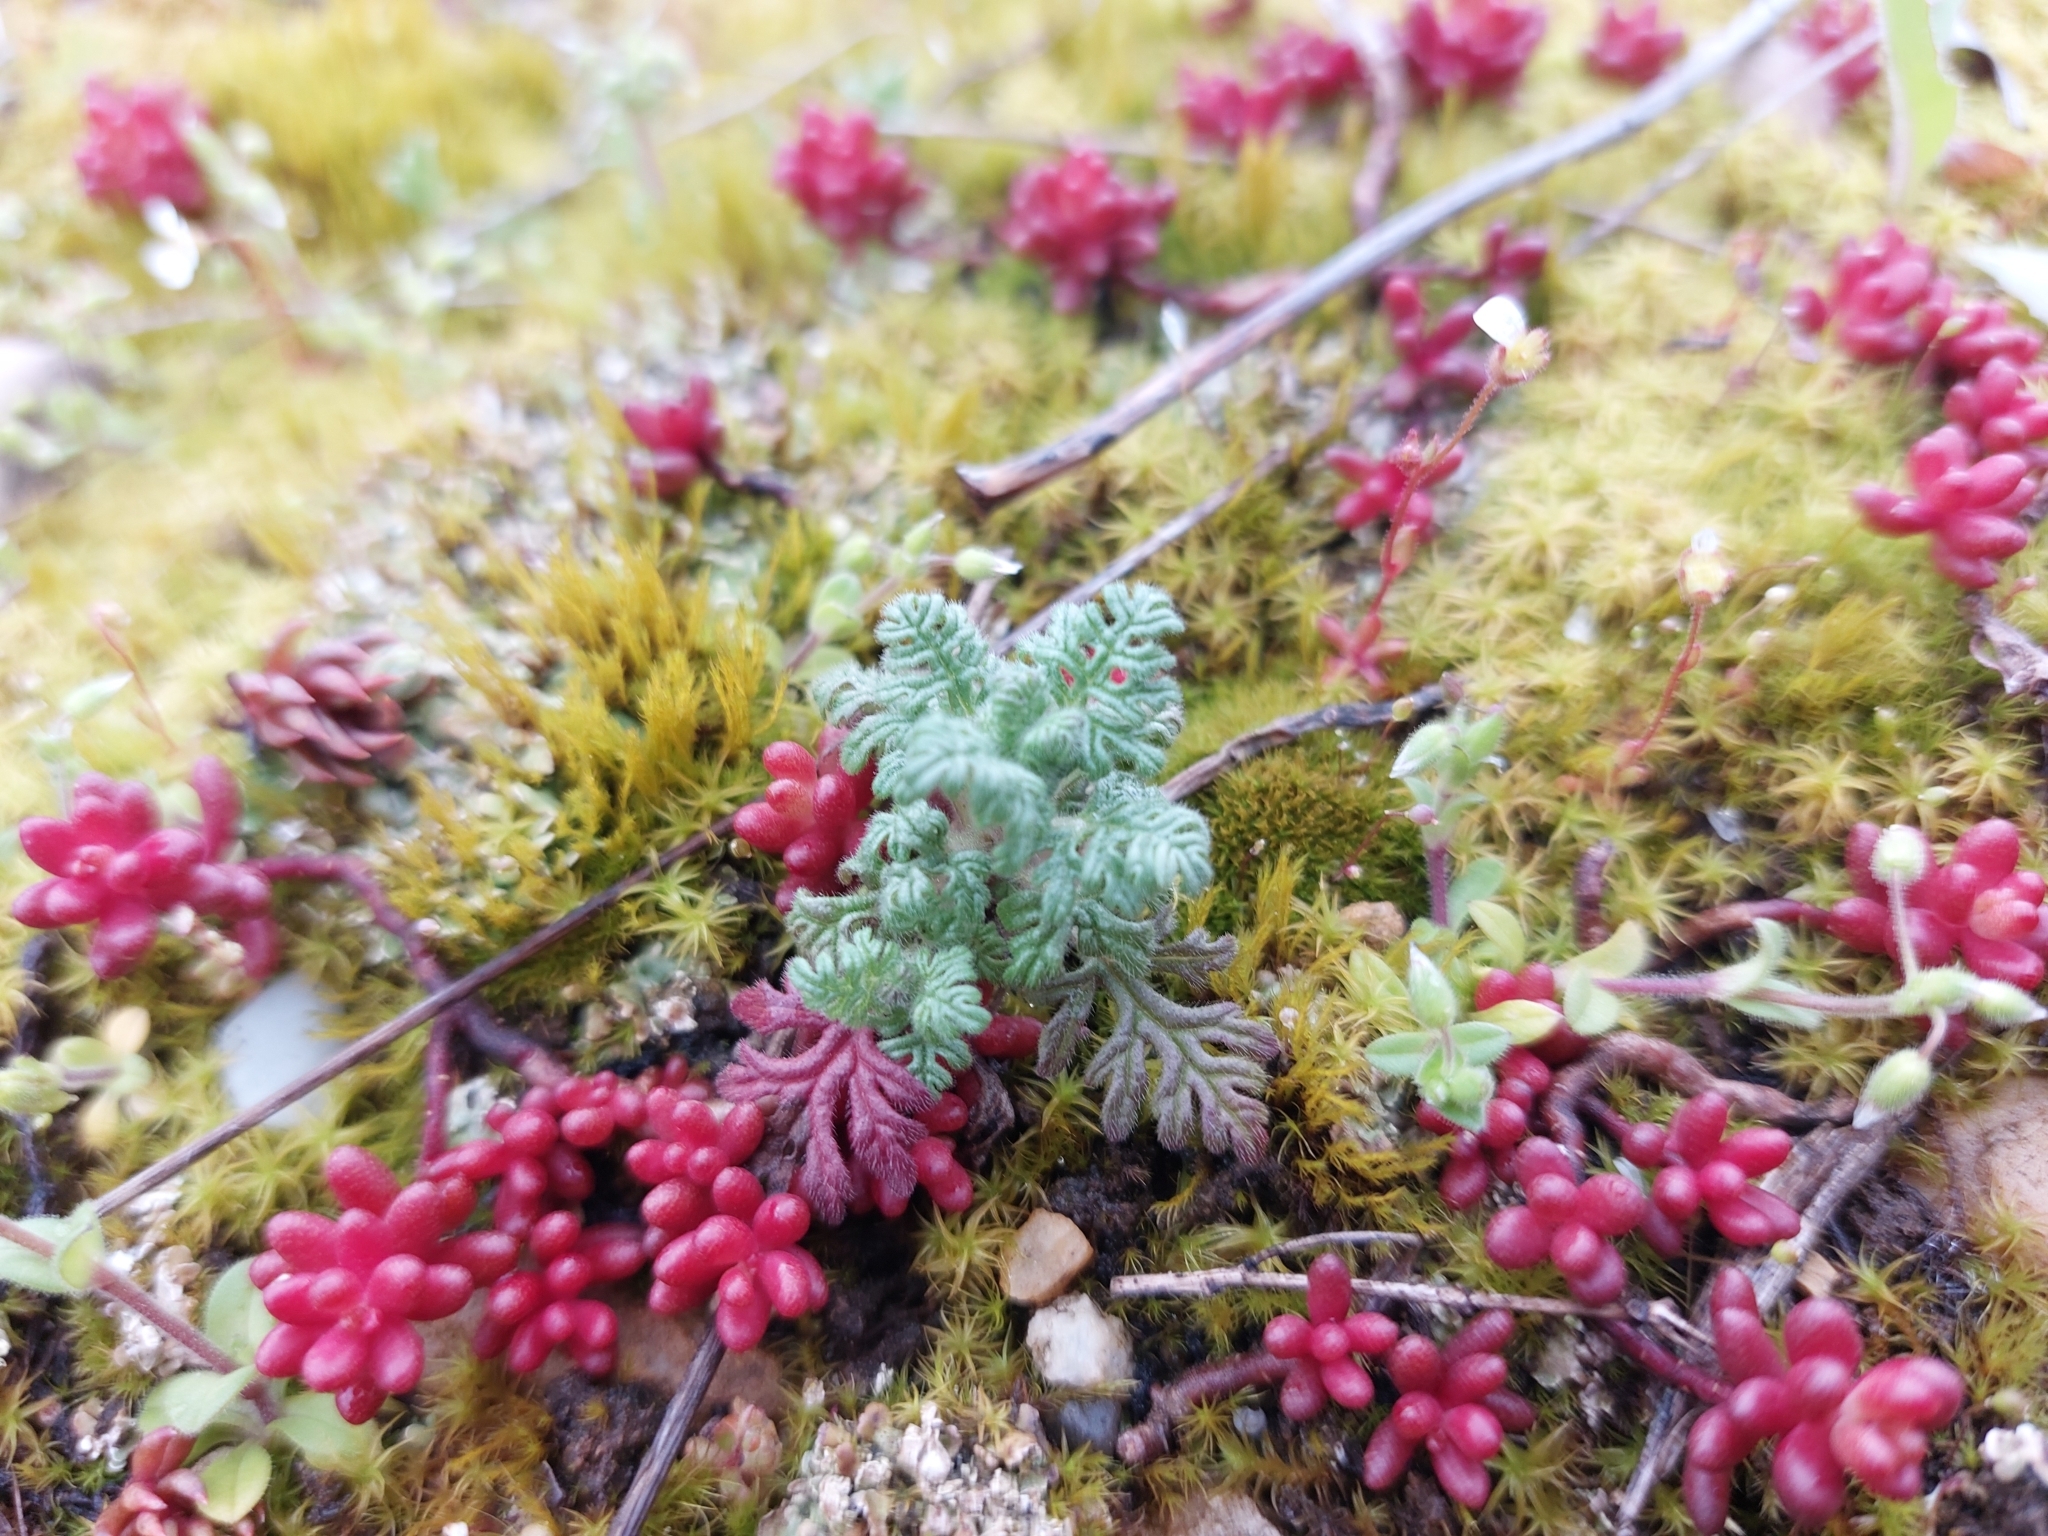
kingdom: Plantae
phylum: Tracheophyta
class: Magnoliopsida
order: Lamiales
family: Lamiaceae
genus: Teucrium
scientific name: Teucrium botrys
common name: Cut-leaved germander
